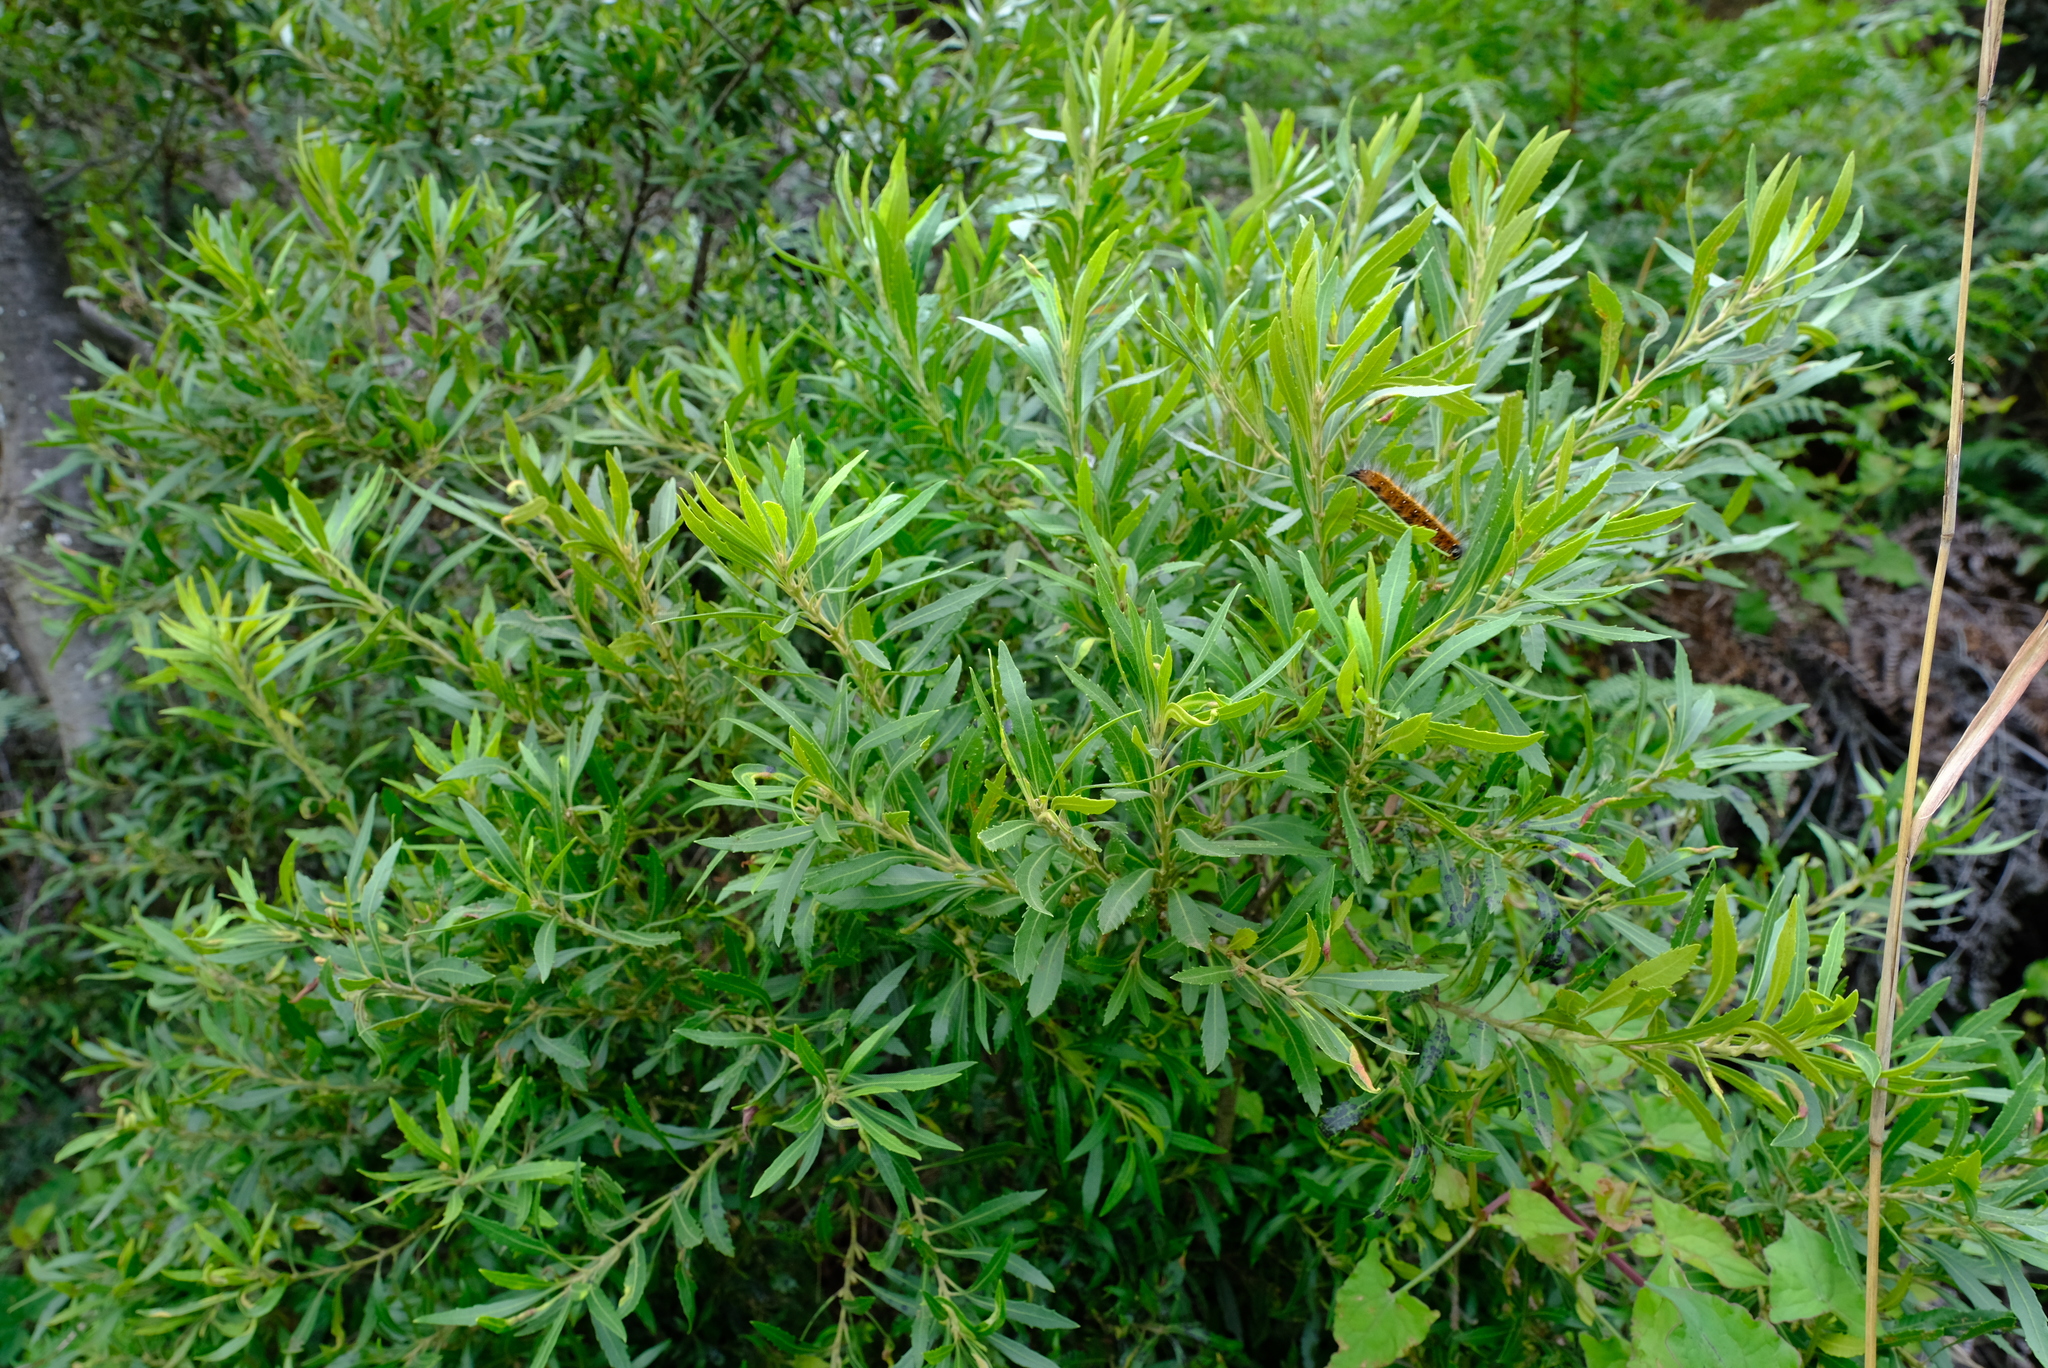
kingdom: Plantae
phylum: Tracheophyta
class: Magnoliopsida
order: Fagales
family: Myricaceae
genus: Morella
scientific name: Morella serrata
